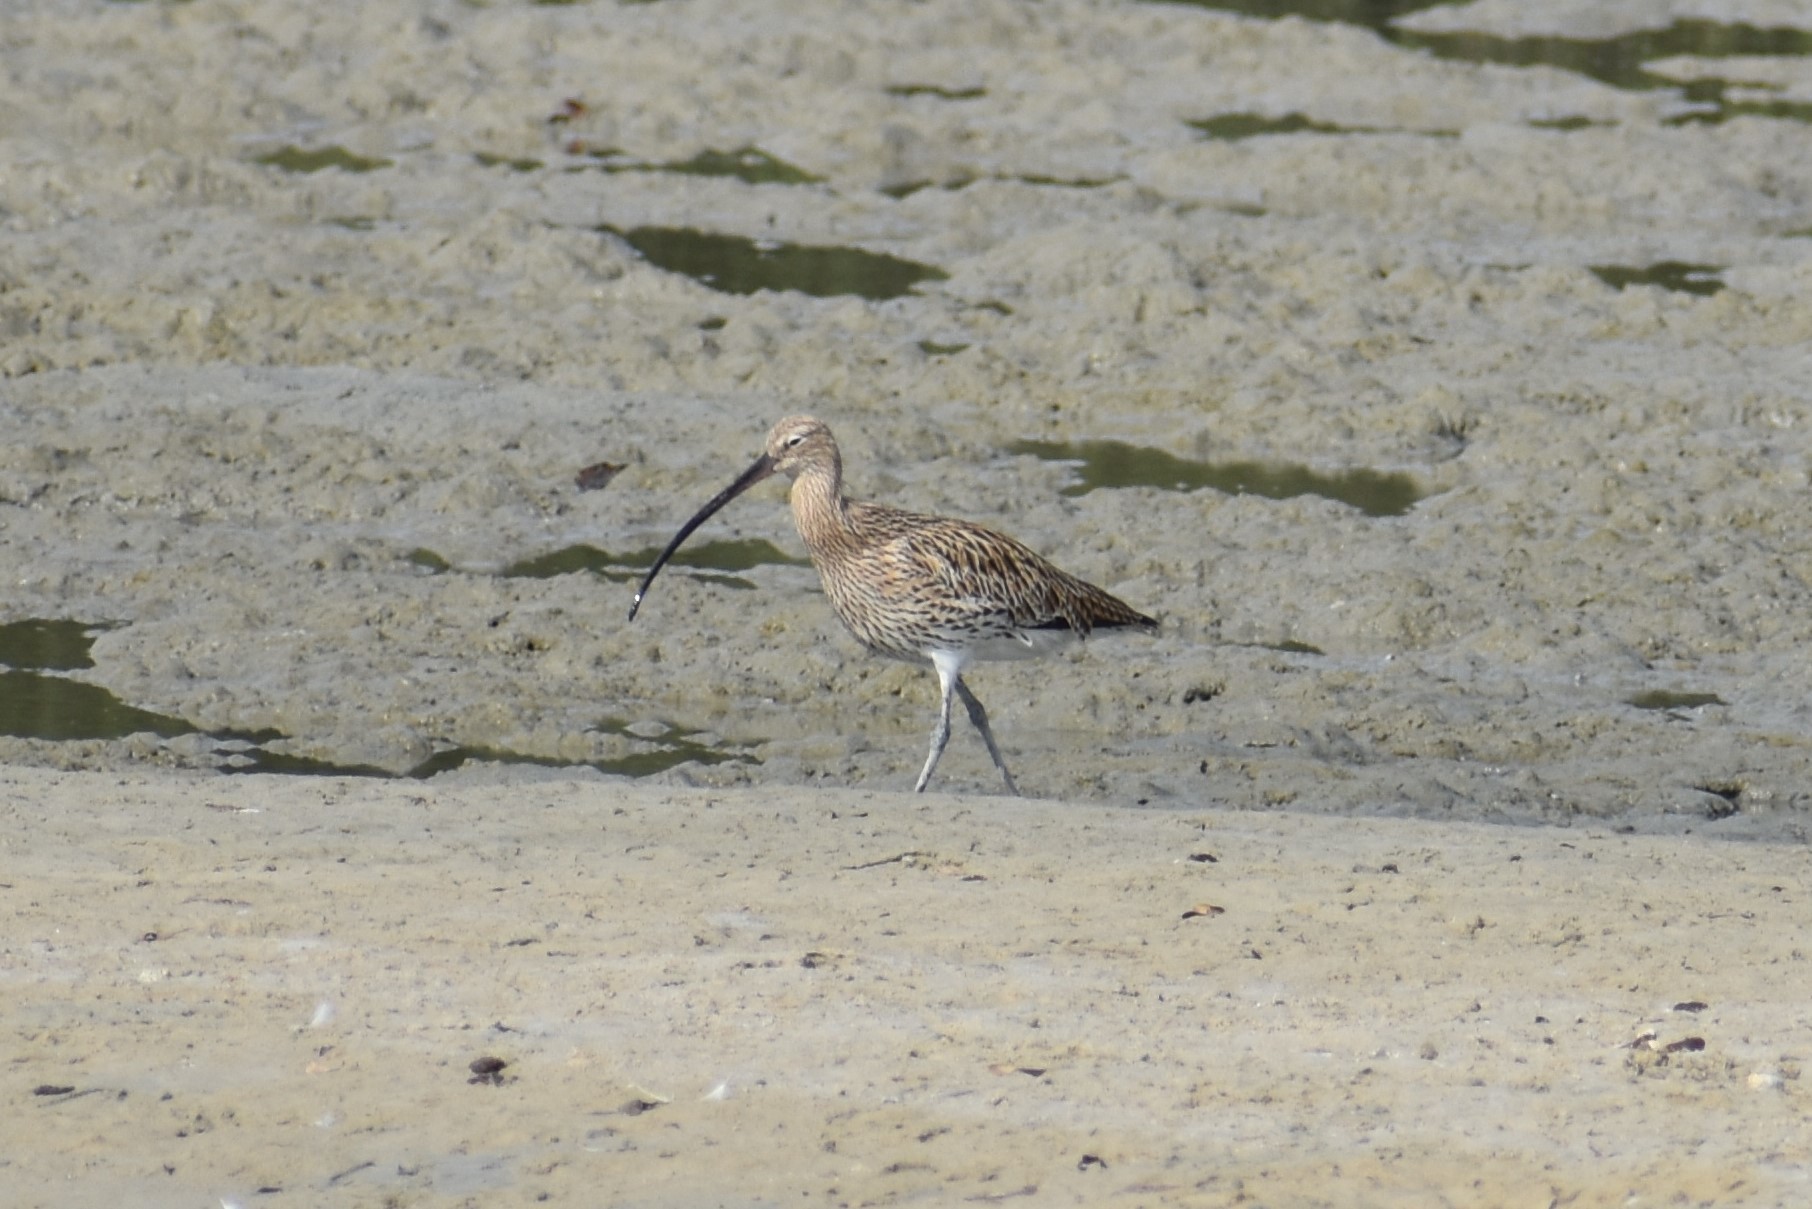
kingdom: Animalia
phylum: Chordata
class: Aves
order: Charadriiformes
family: Scolopacidae
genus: Numenius
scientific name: Numenius arquata
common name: Eurasian curlew
